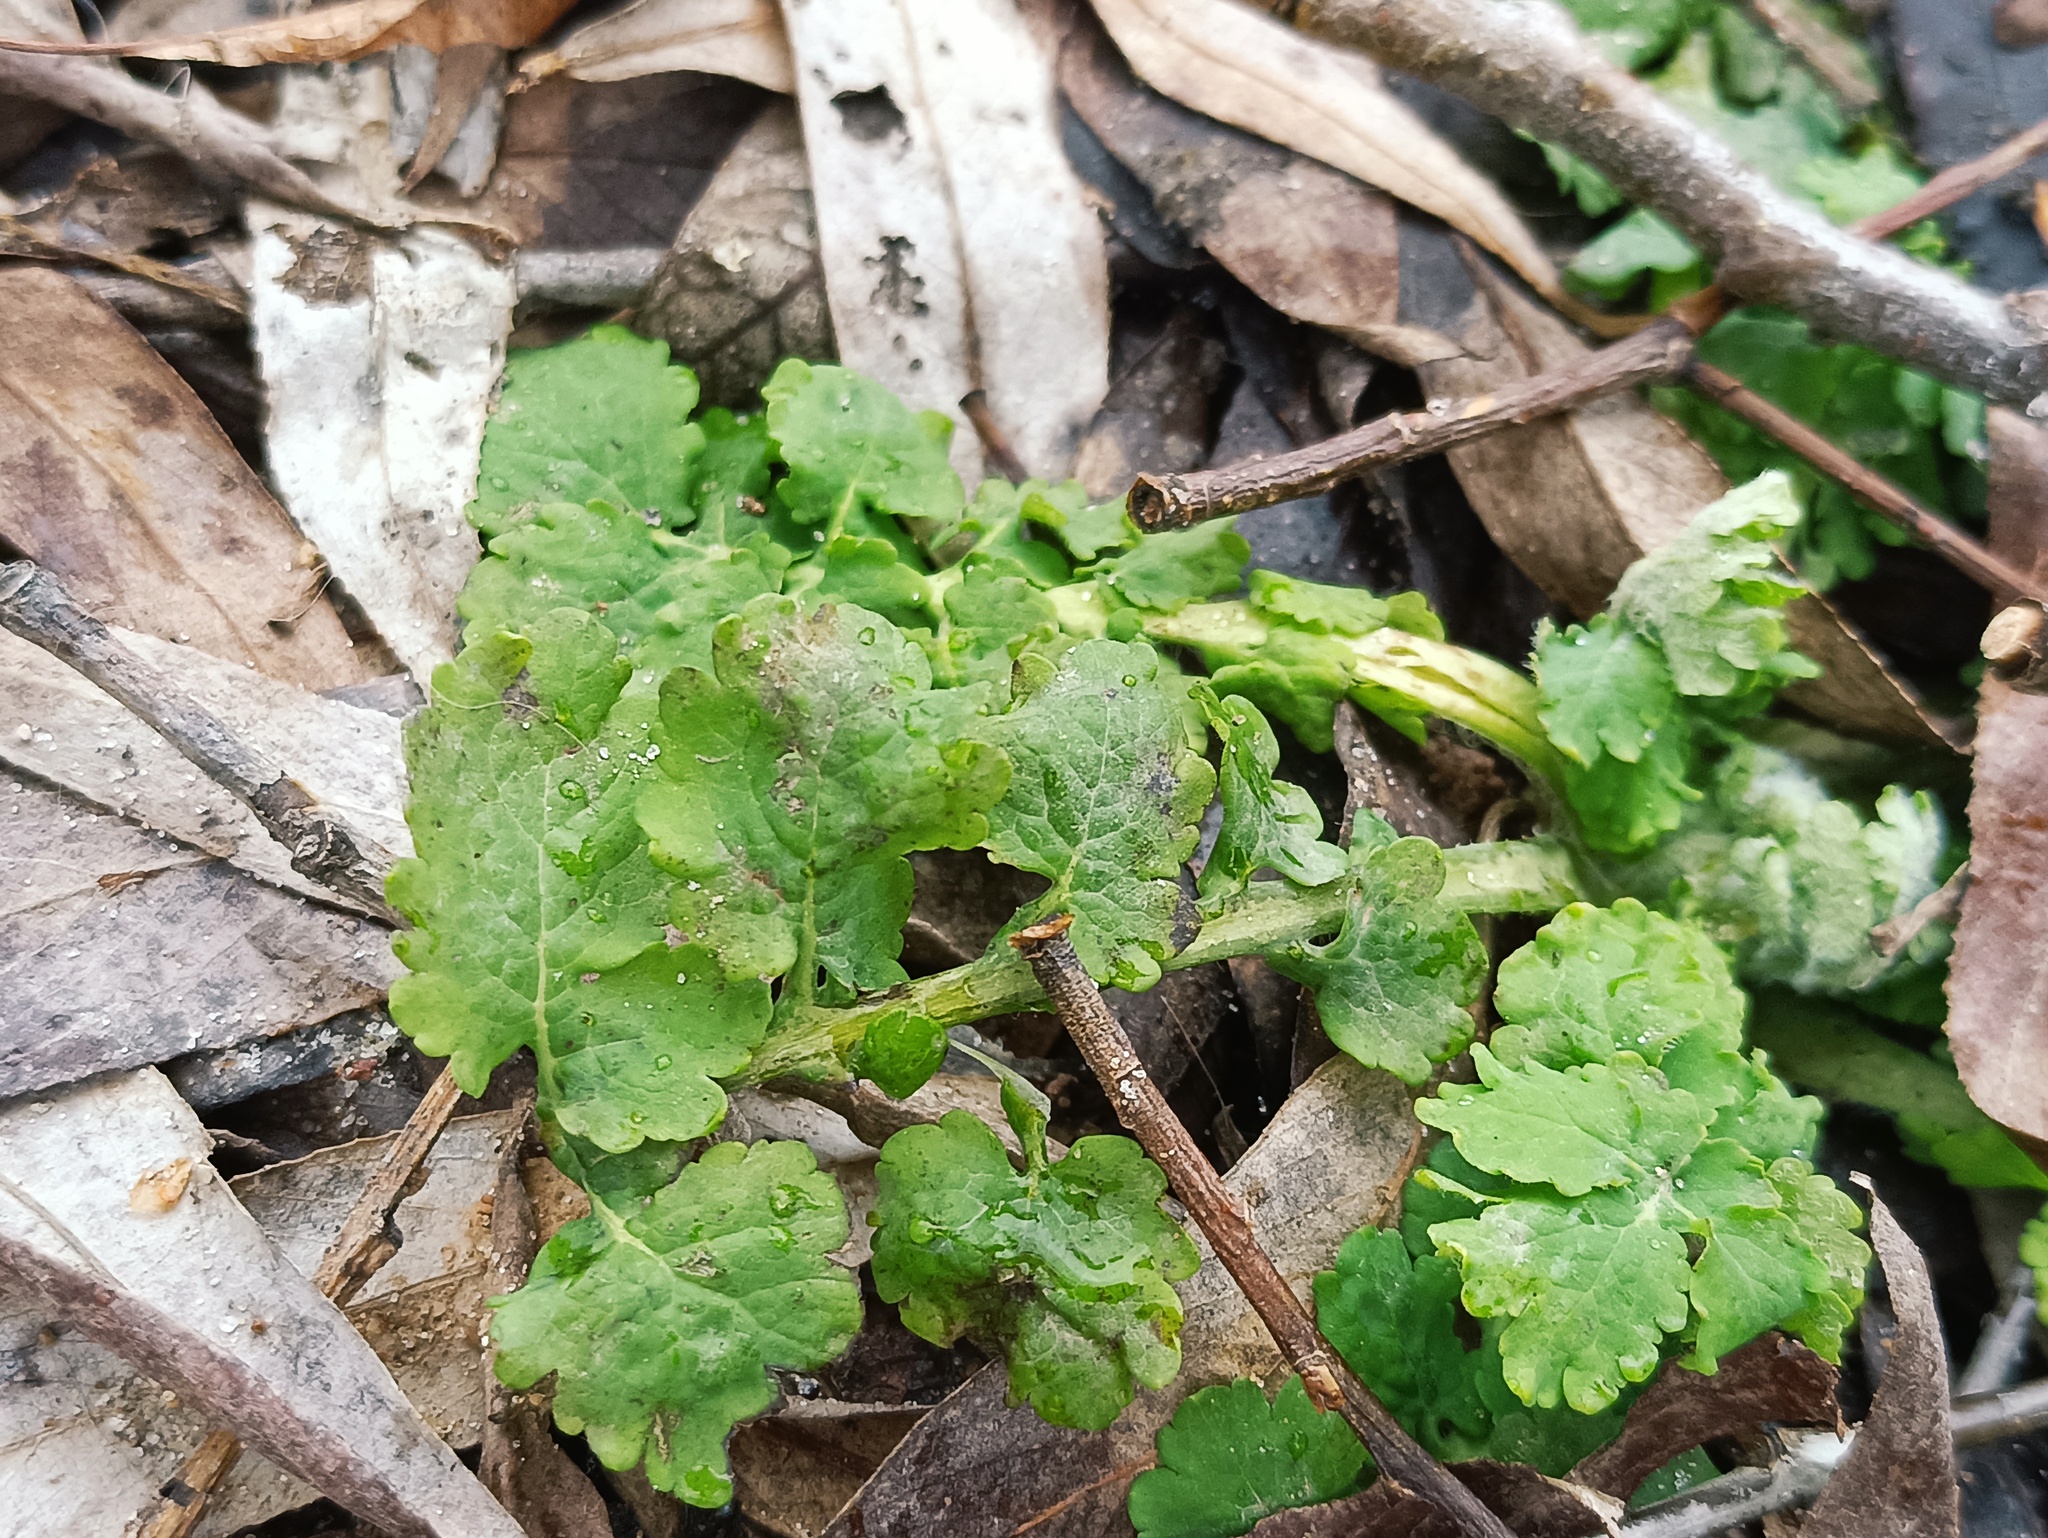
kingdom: Plantae
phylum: Tracheophyta
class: Magnoliopsida
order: Ranunculales
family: Papaveraceae
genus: Chelidonium
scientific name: Chelidonium majus
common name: Greater celandine
